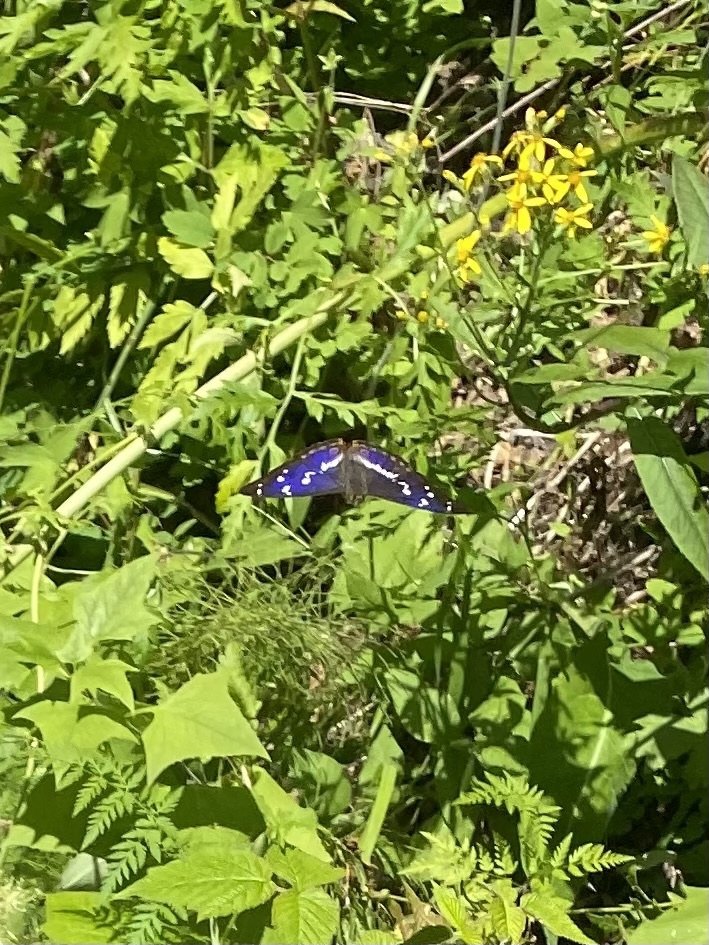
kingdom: Animalia
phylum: Arthropoda
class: Insecta
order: Lepidoptera
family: Nymphalidae
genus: Apatura
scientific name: Apatura iris
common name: Purple emperor
